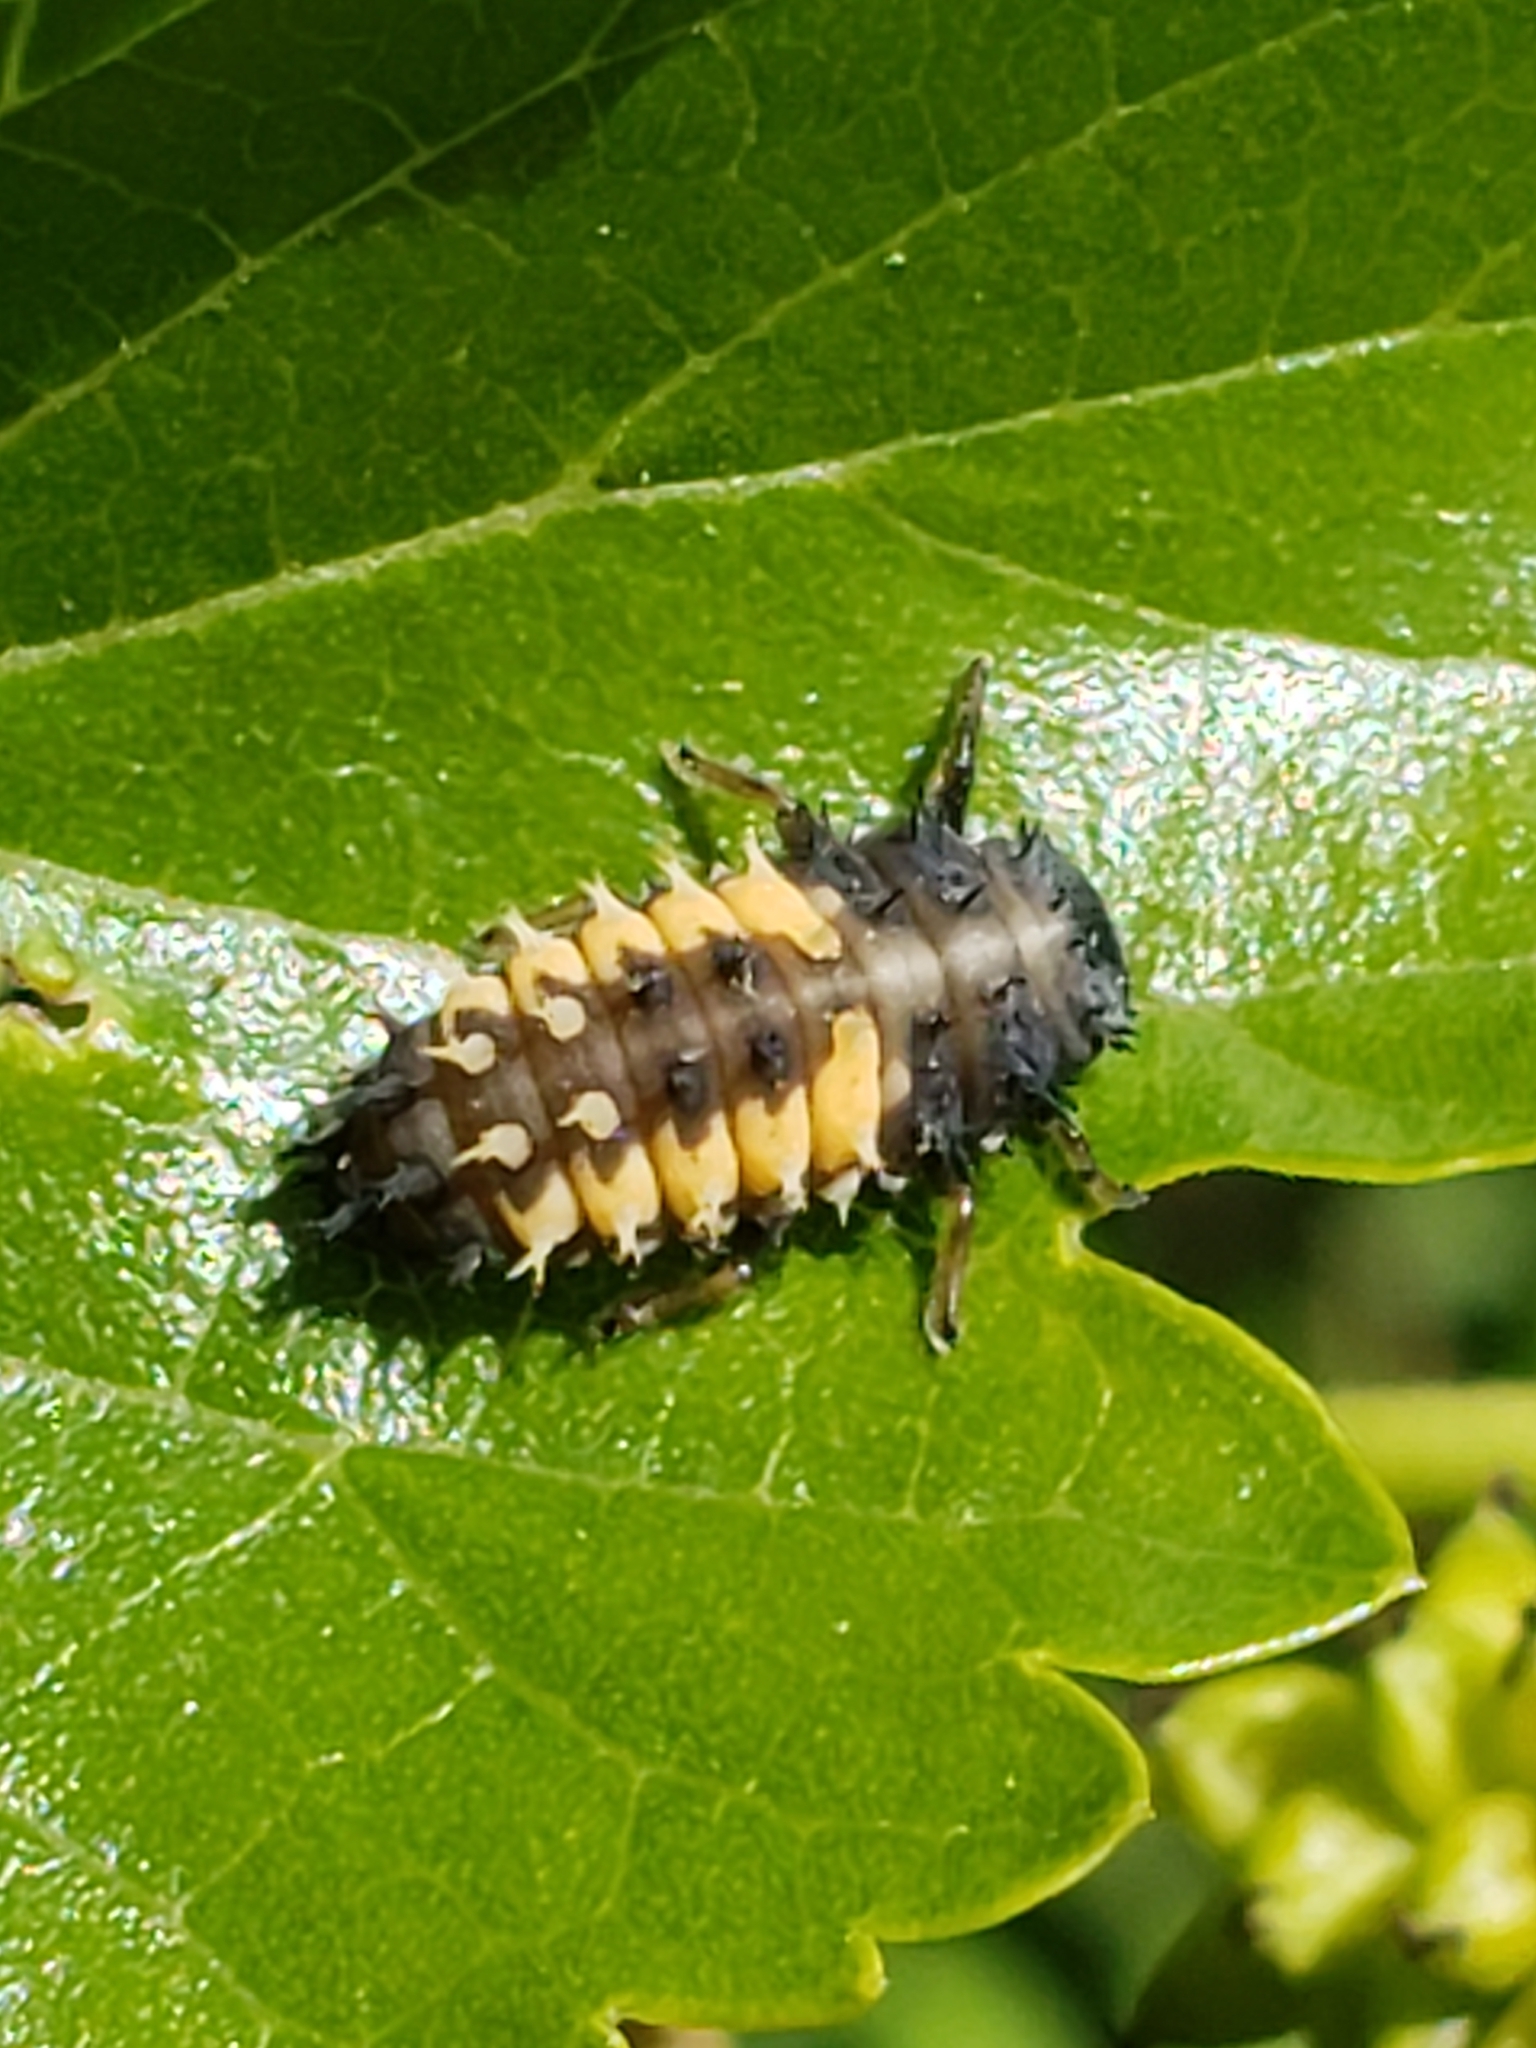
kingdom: Animalia
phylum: Arthropoda
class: Insecta
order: Coleoptera
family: Coccinellidae
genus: Harmonia
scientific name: Harmonia axyridis
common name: Harlequin ladybird
